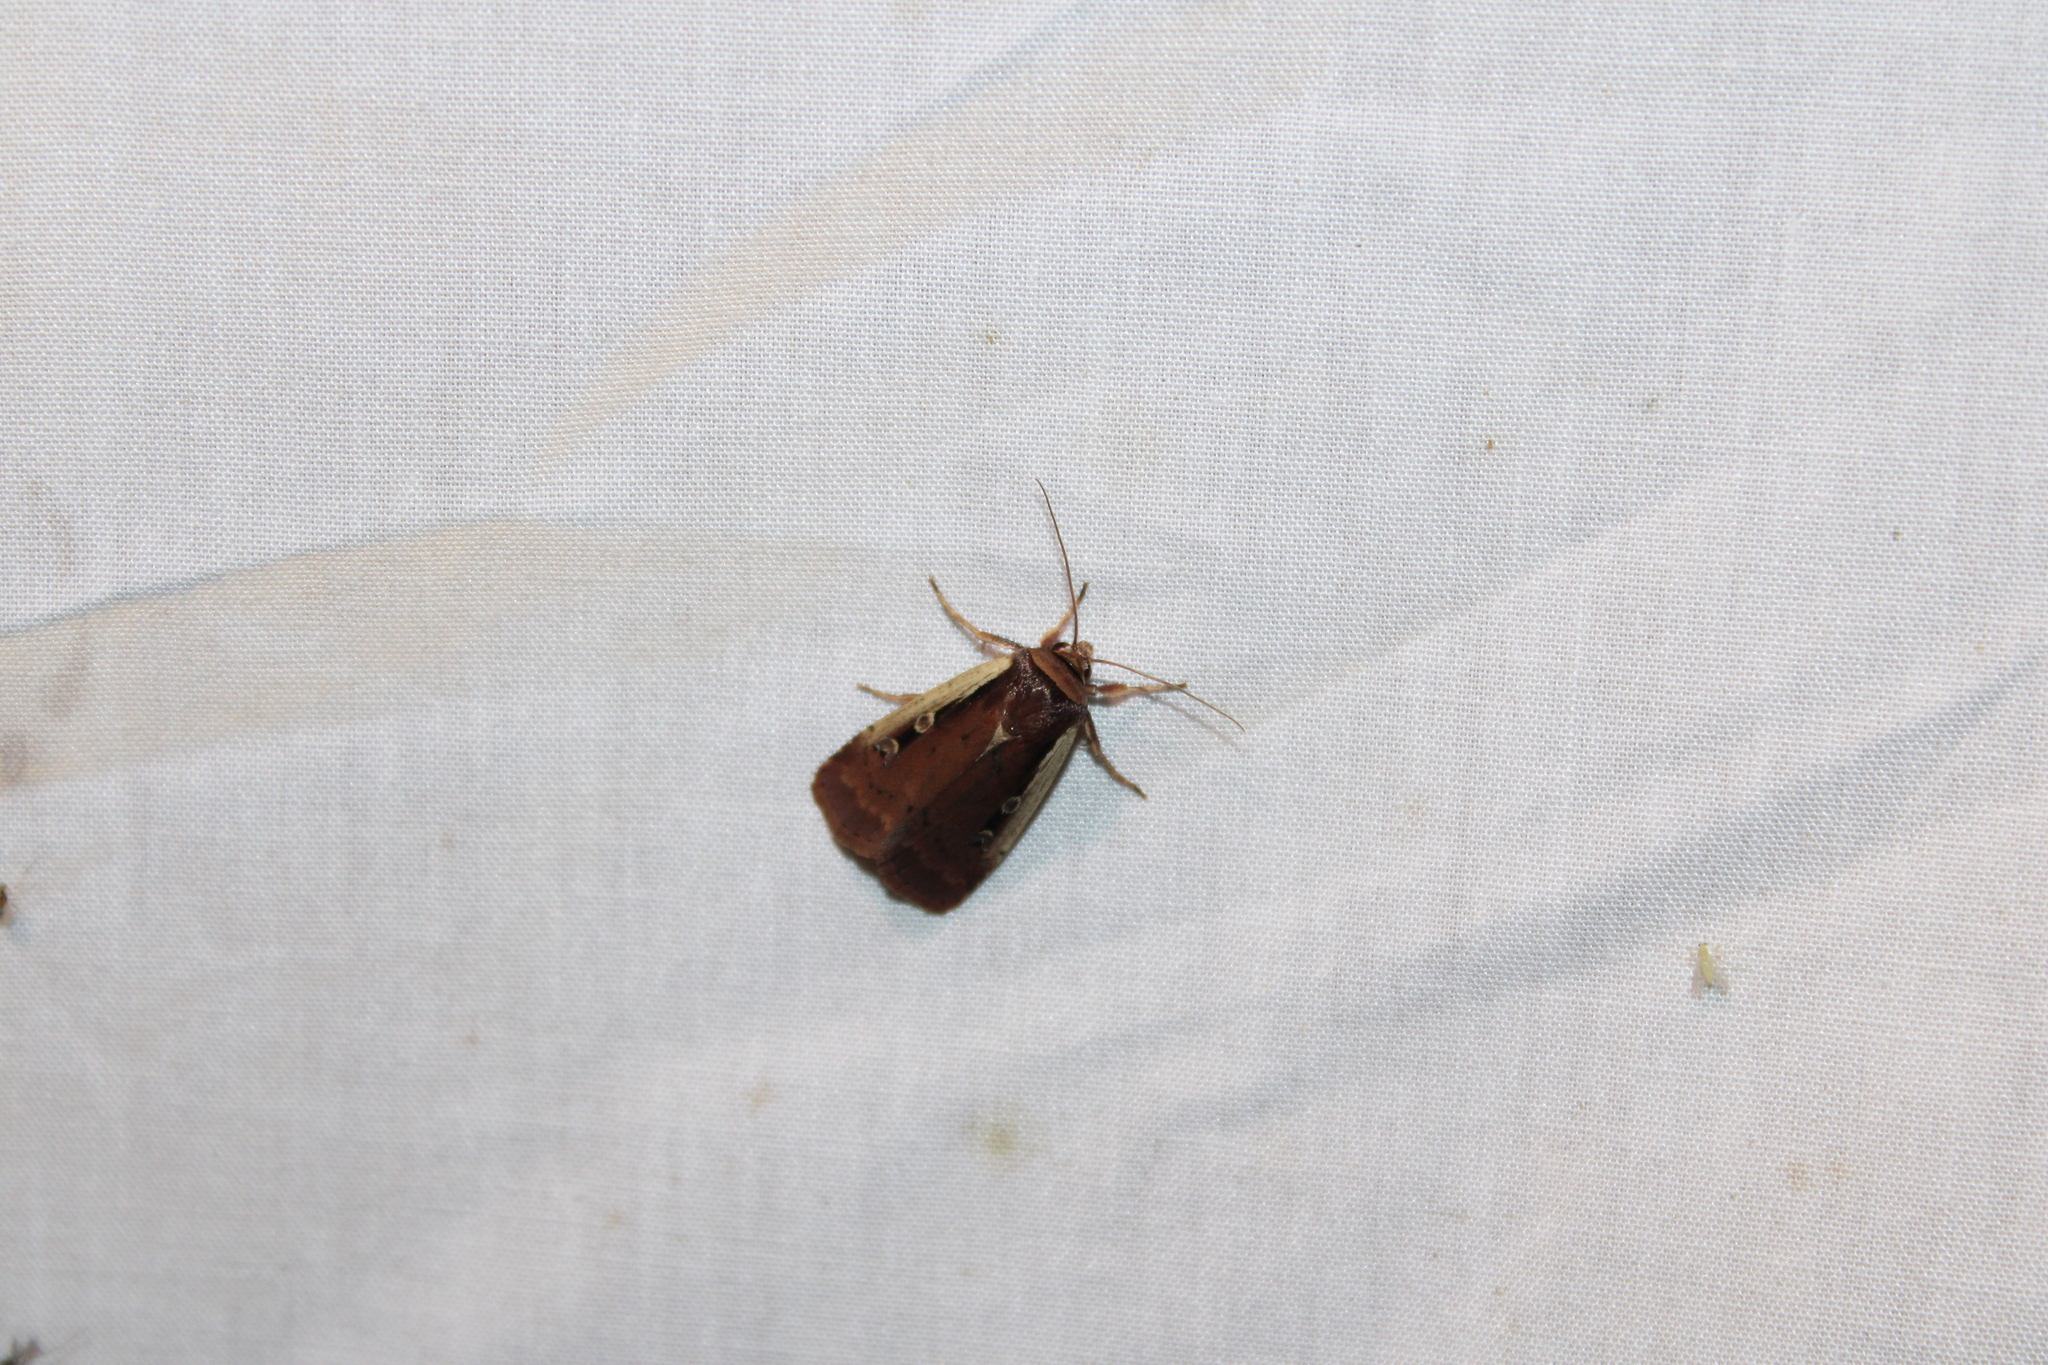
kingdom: Animalia
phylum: Arthropoda
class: Insecta
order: Lepidoptera
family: Noctuidae
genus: Ochropleura
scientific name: Ochropleura implecta
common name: Flame-shouldered dart
